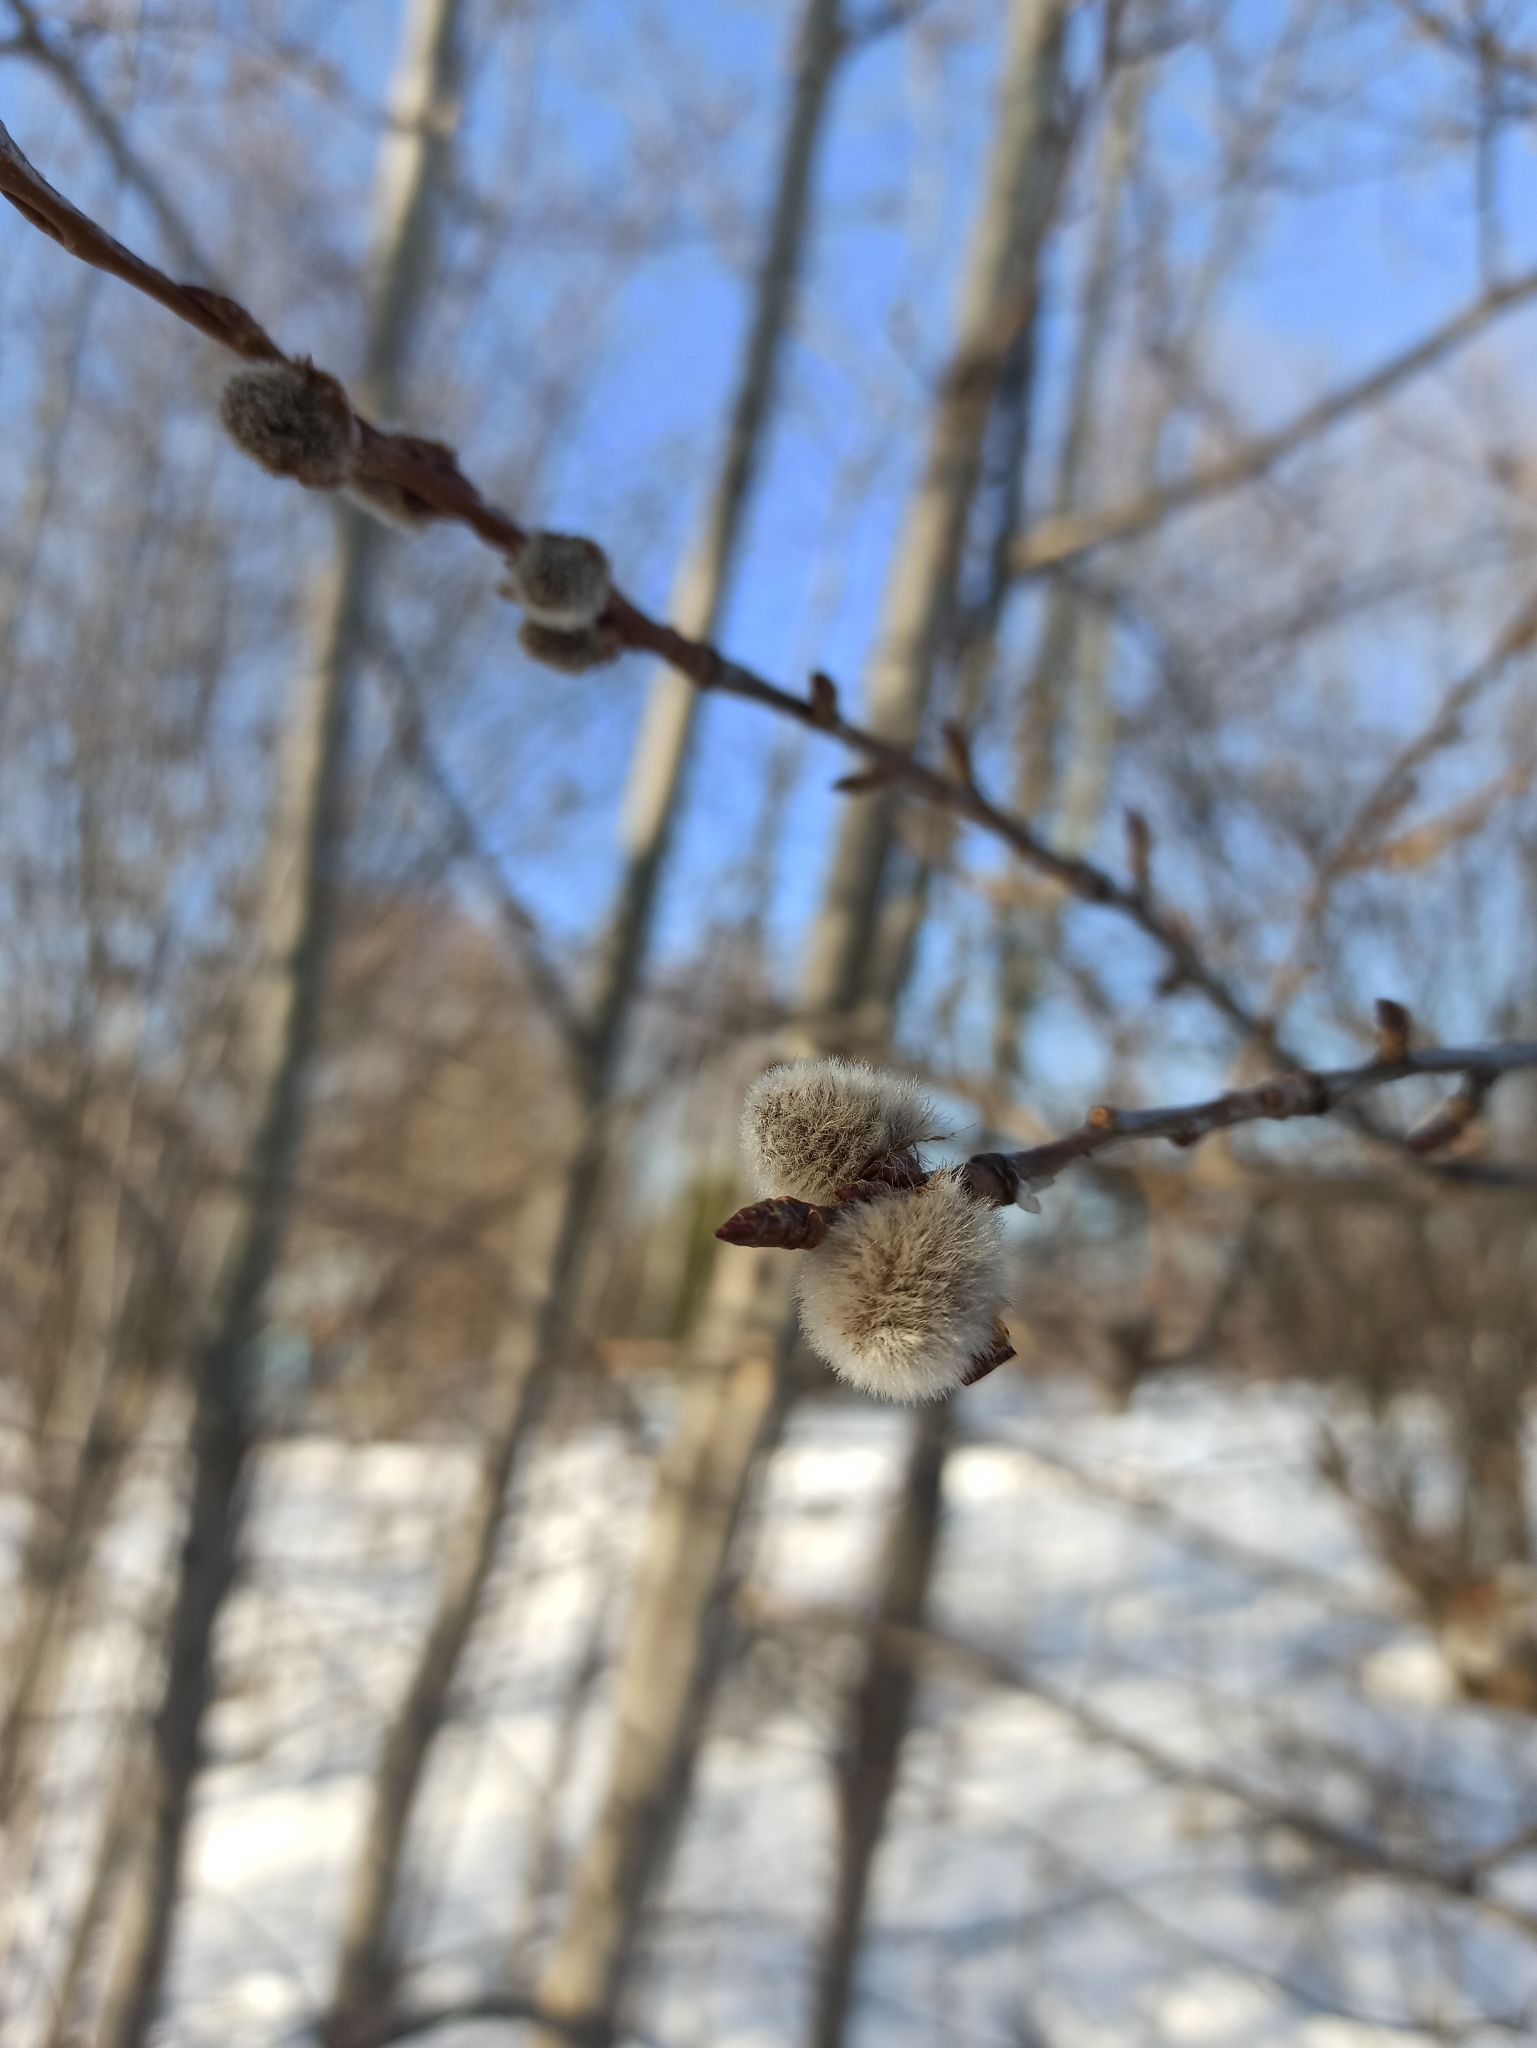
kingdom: Plantae
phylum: Tracheophyta
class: Magnoliopsida
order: Malpighiales
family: Salicaceae
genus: Populus
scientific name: Populus tremula
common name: European aspen
